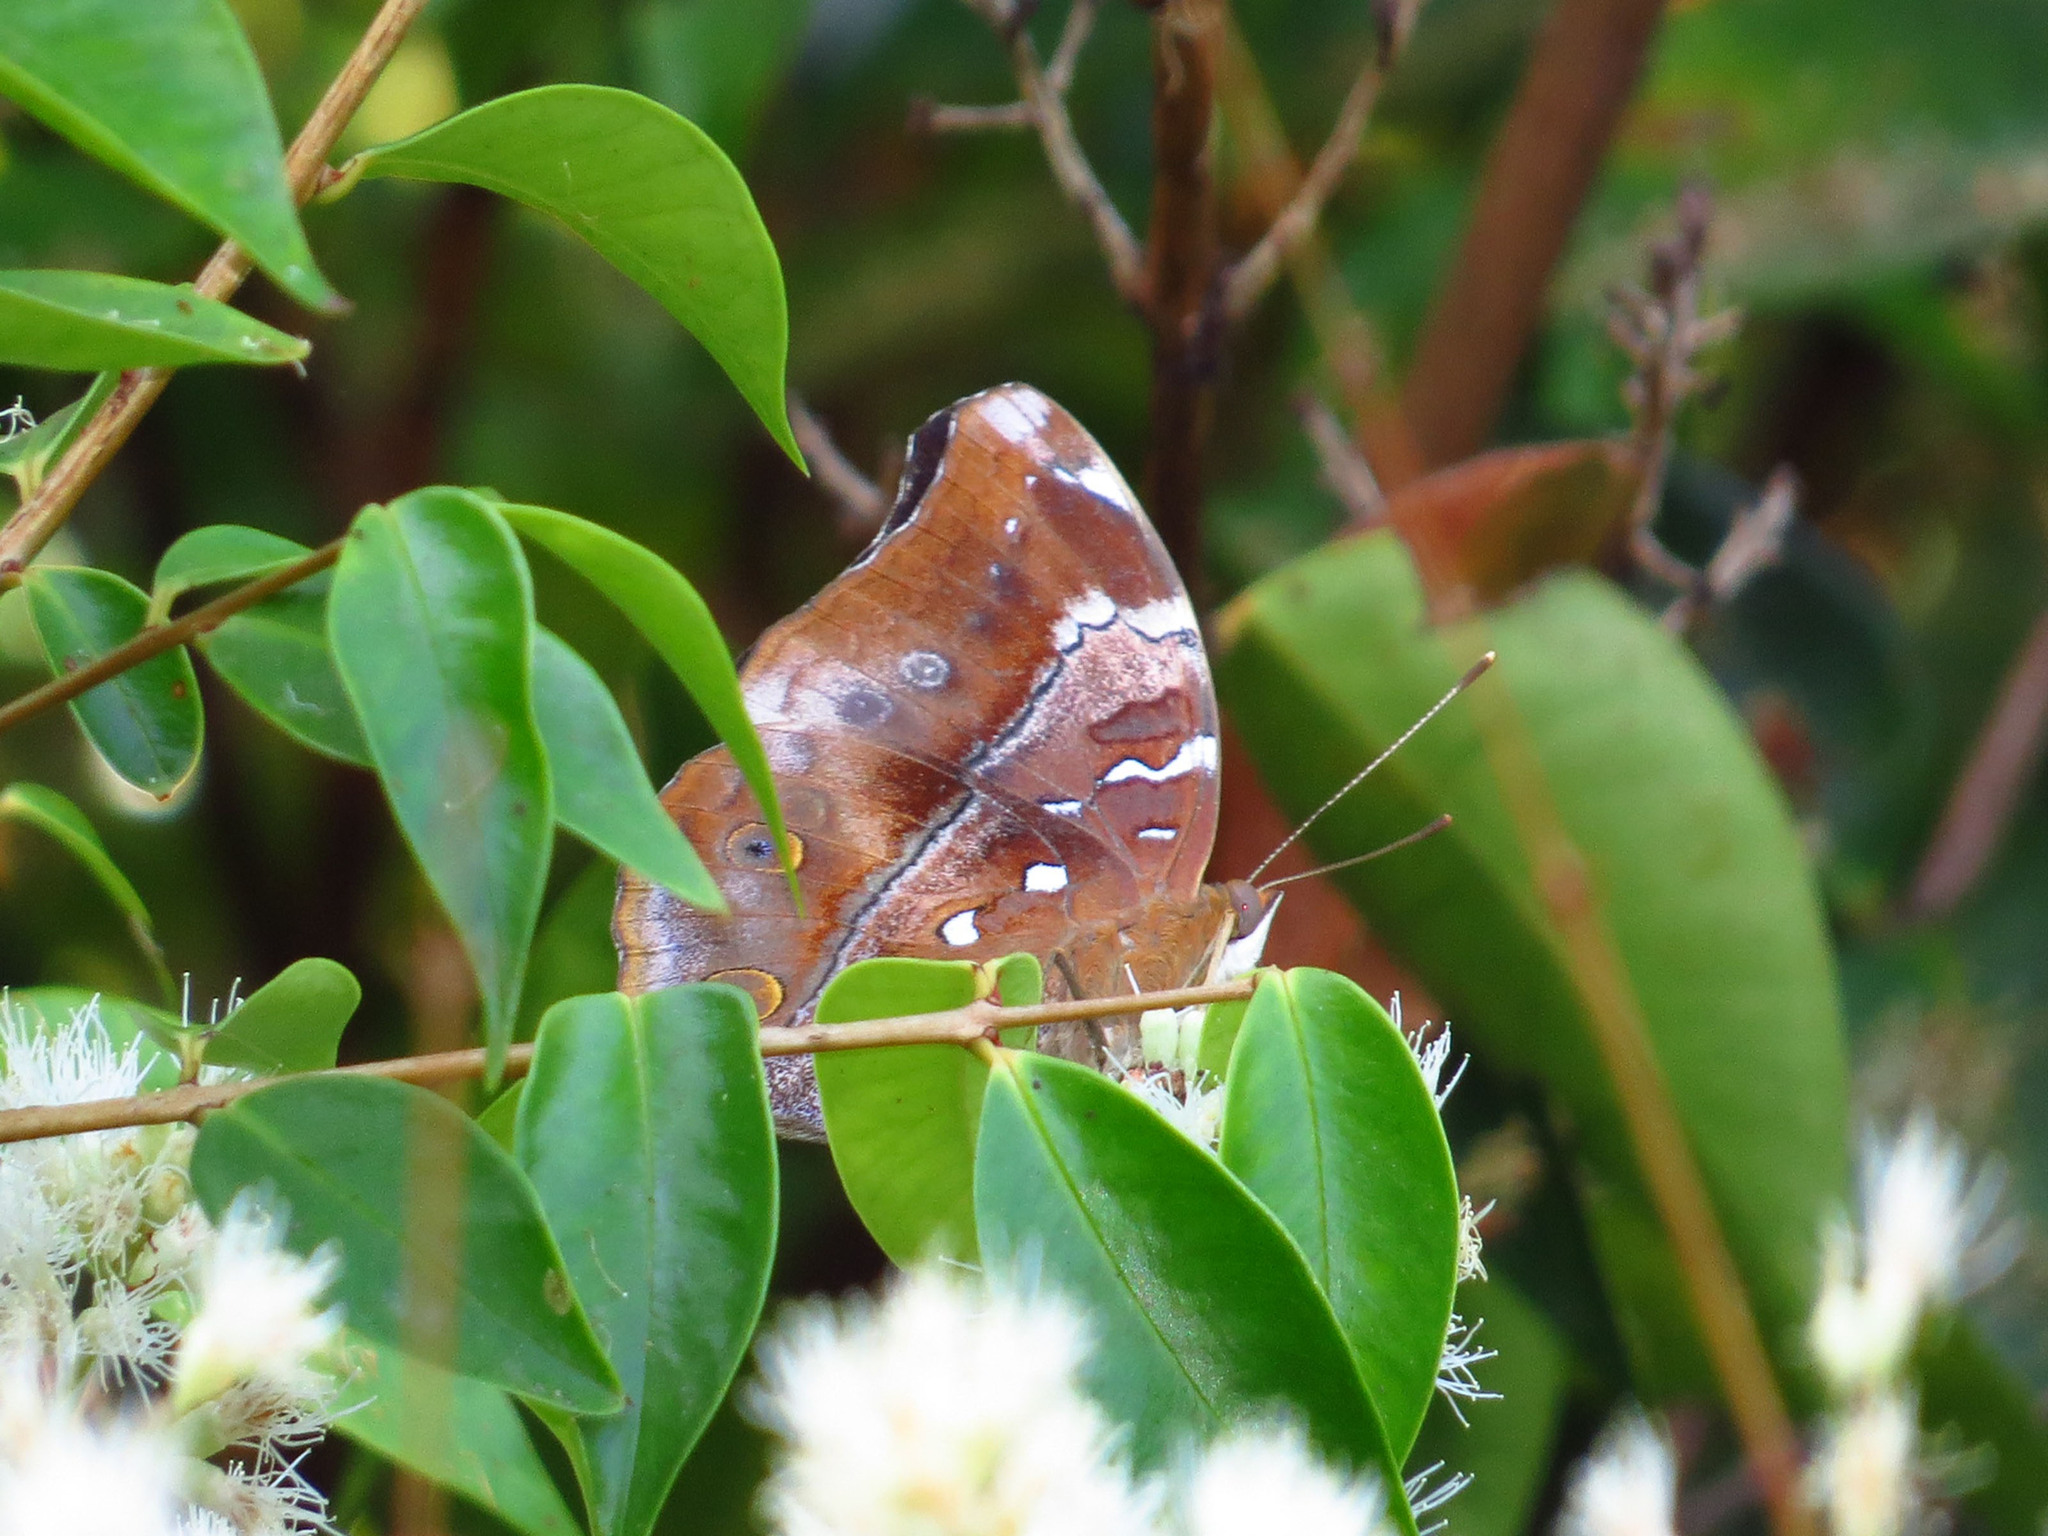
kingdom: Animalia
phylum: Arthropoda
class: Insecta
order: Lepidoptera
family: Nymphalidae
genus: Doleschallia
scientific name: Doleschallia bisaltide
